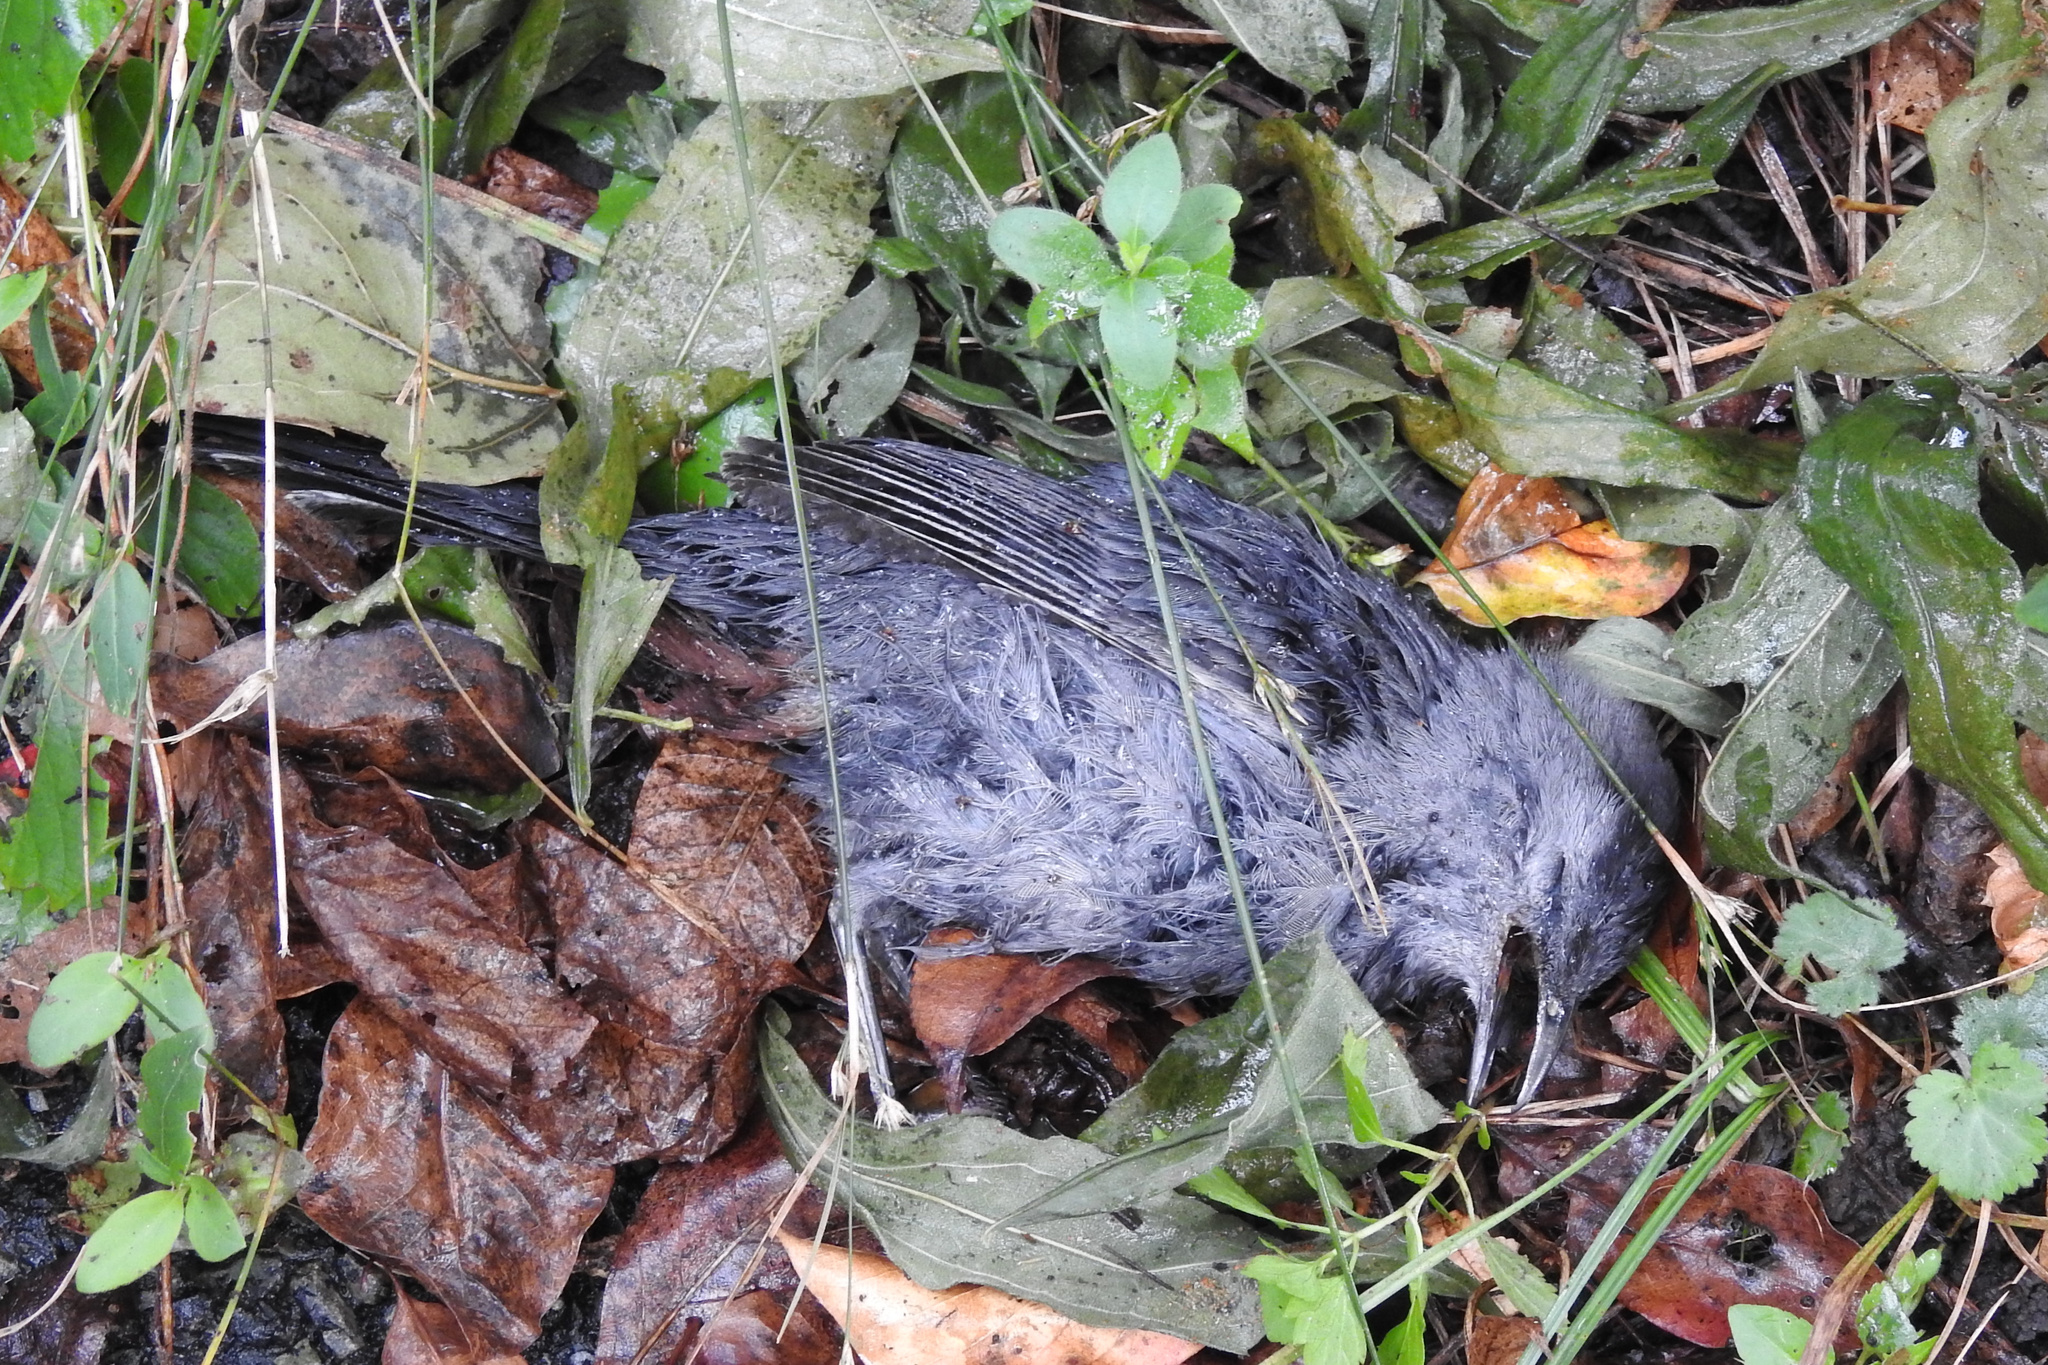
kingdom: Animalia
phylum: Chordata
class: Aves
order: Passeriformes
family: Mimidae
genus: Dumetella
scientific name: Dumetella carolinensis
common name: Gray catbird
